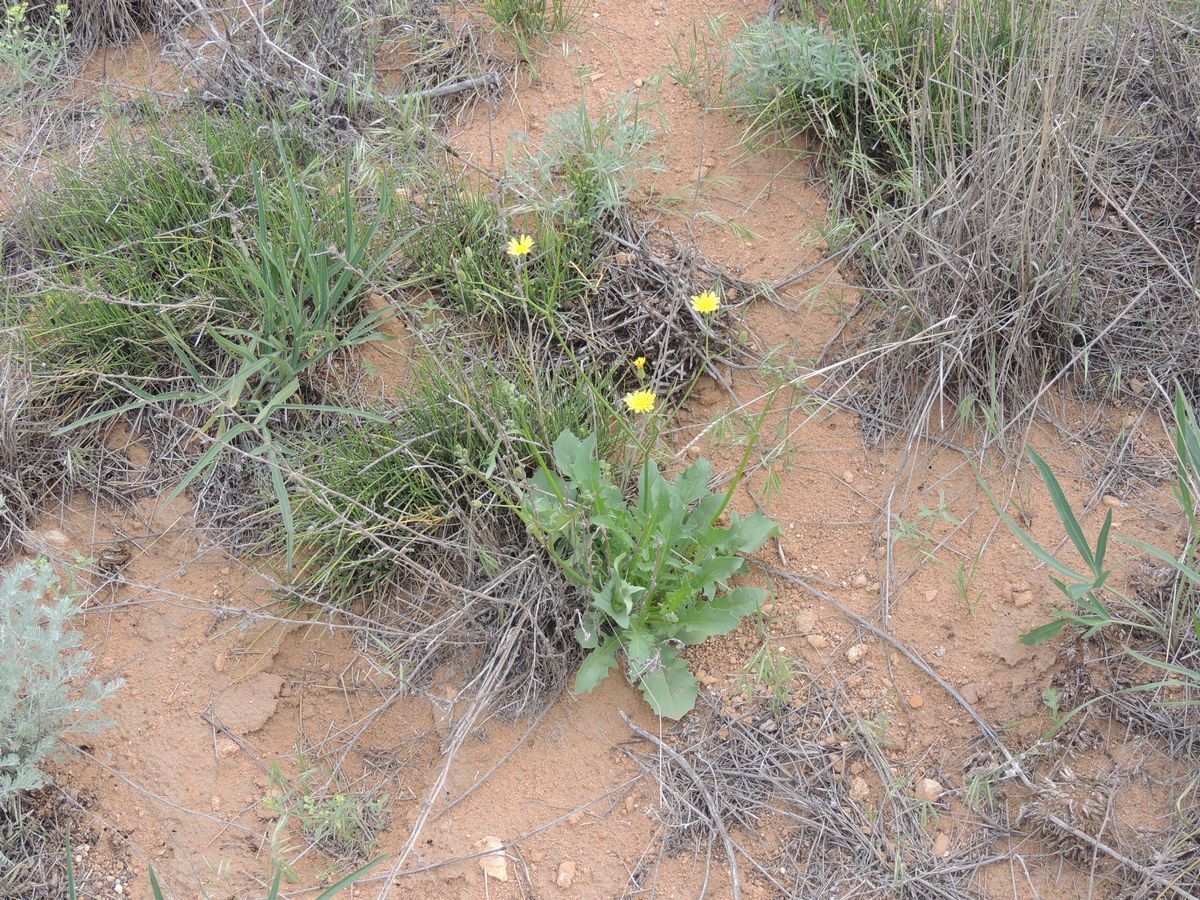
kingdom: Plantae
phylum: Tracheophyta
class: Magnoliopsida
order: Asterales
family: Asteraceae
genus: Crepis
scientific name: Crepis sancta
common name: Hawk's-beard
